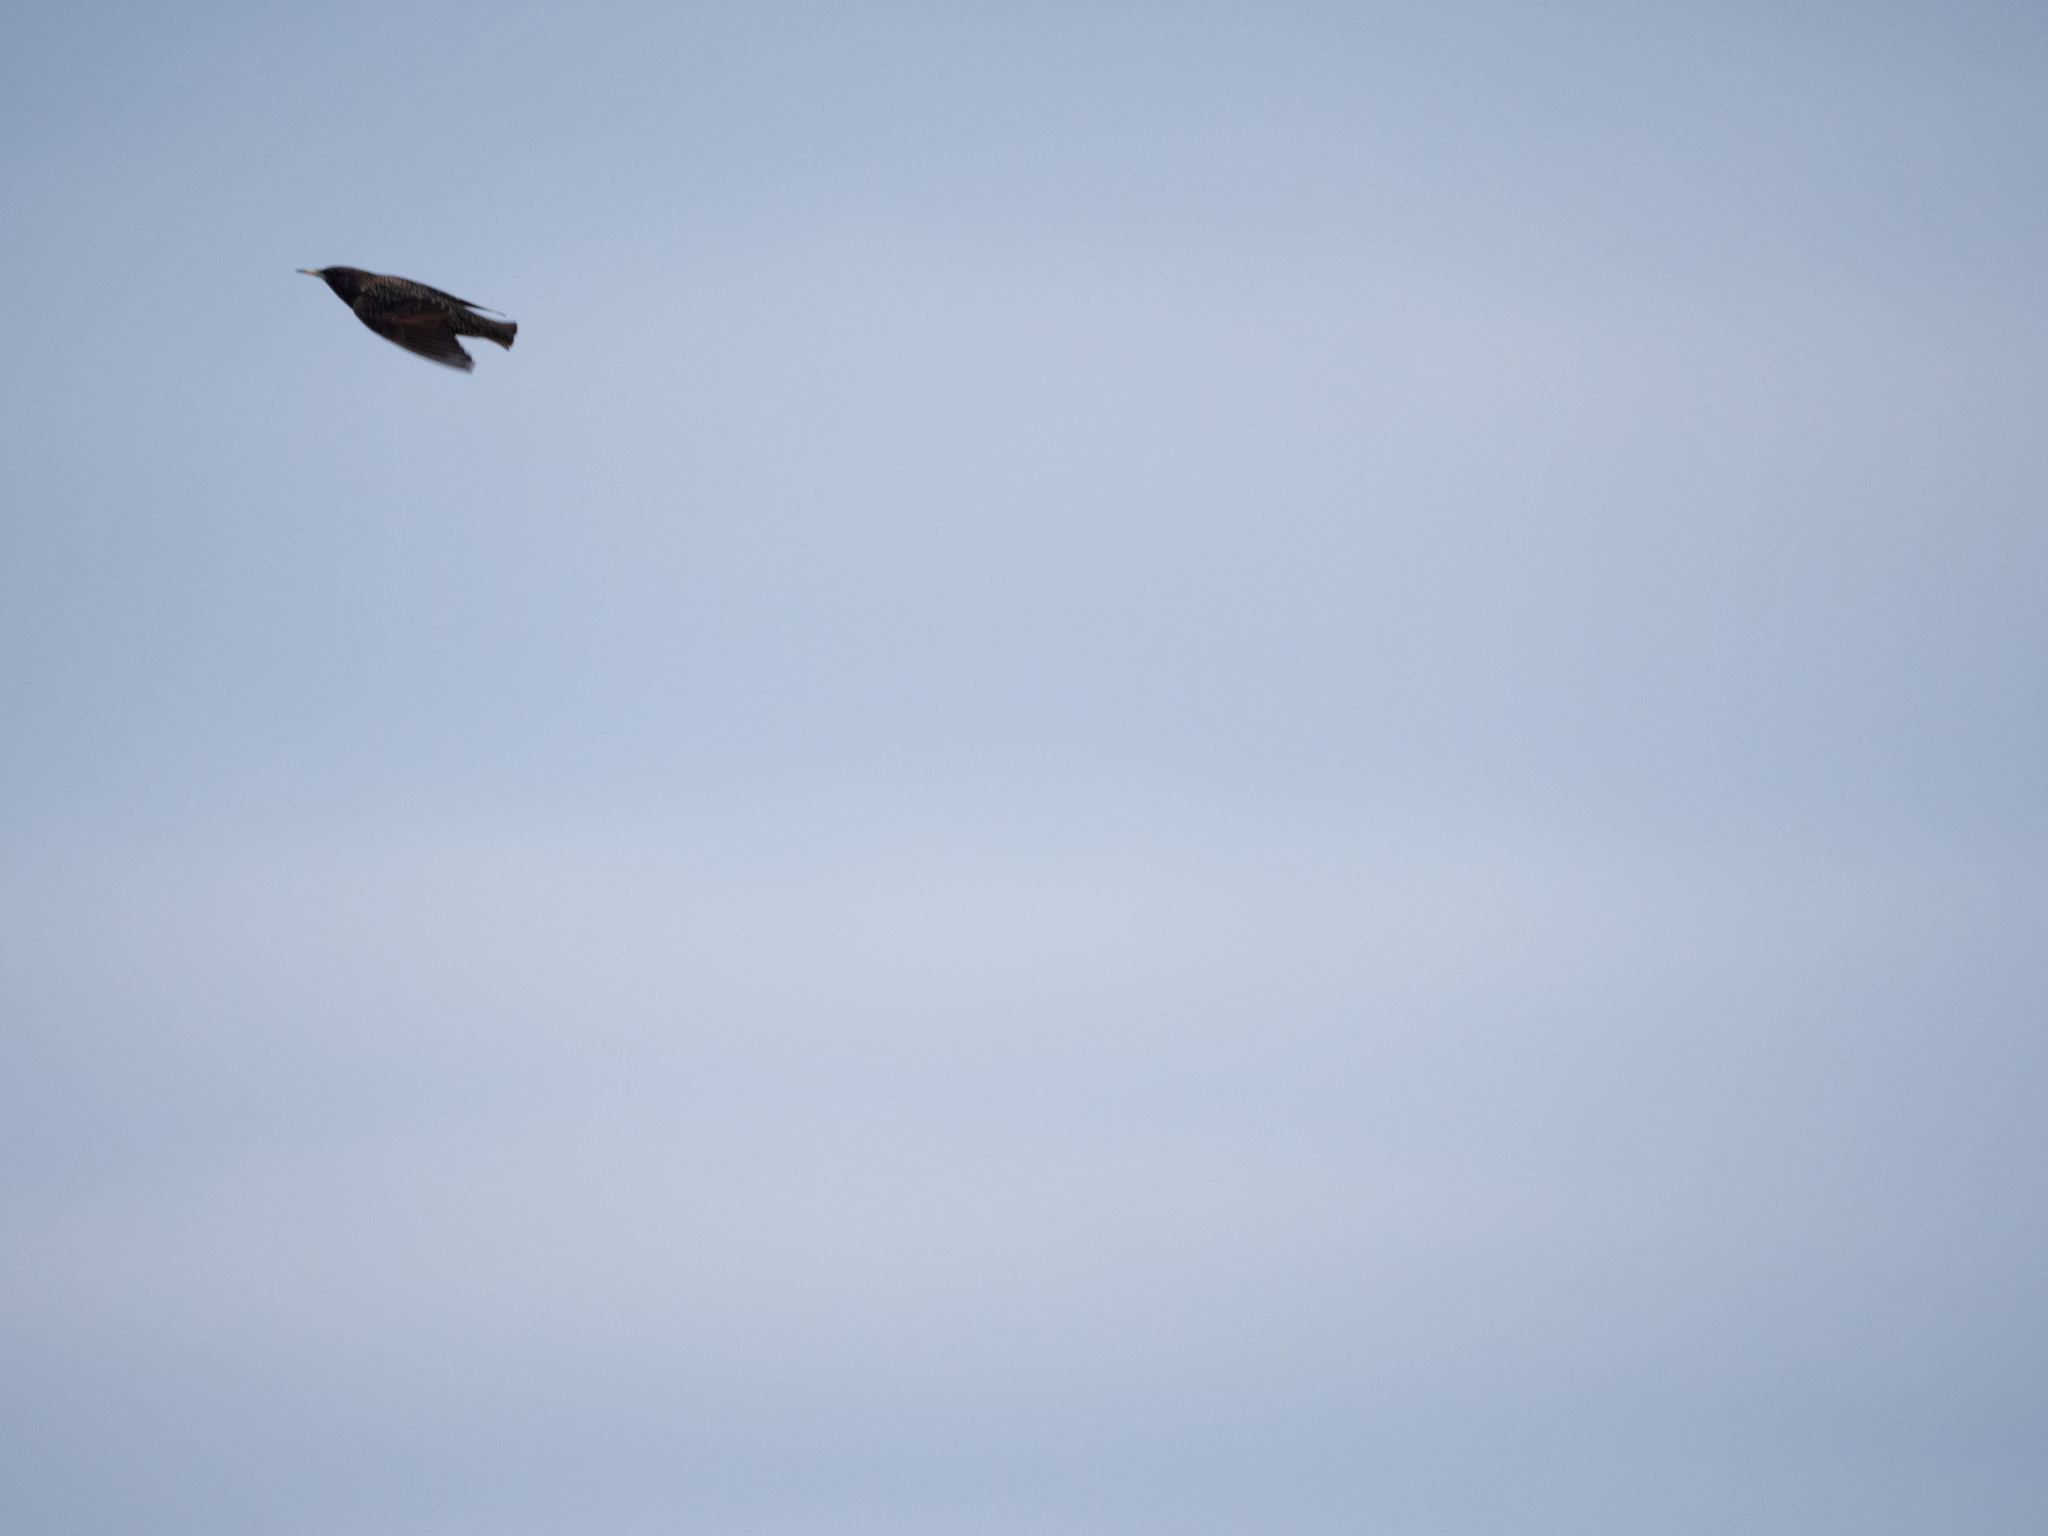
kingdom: Animalia
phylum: Chordata
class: Aves
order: Passeriformes
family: Sturnidae
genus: Sturnus
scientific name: Sturnus vulgaris
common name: Common starling
